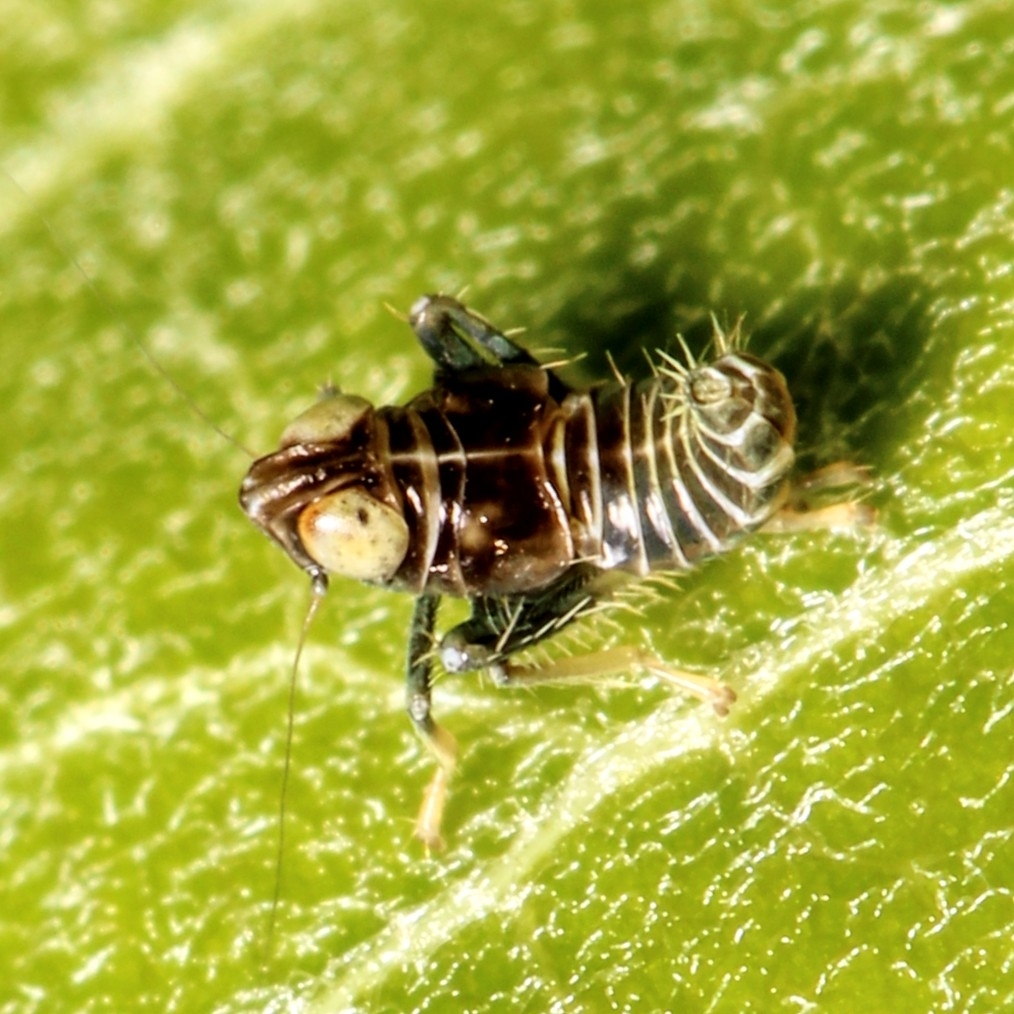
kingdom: Animalia
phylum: Arthropoda
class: Insecta
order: Hemiptera
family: Cicadellidae
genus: Jikradia
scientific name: Jikradia olitoria
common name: Coppery leafhopper
